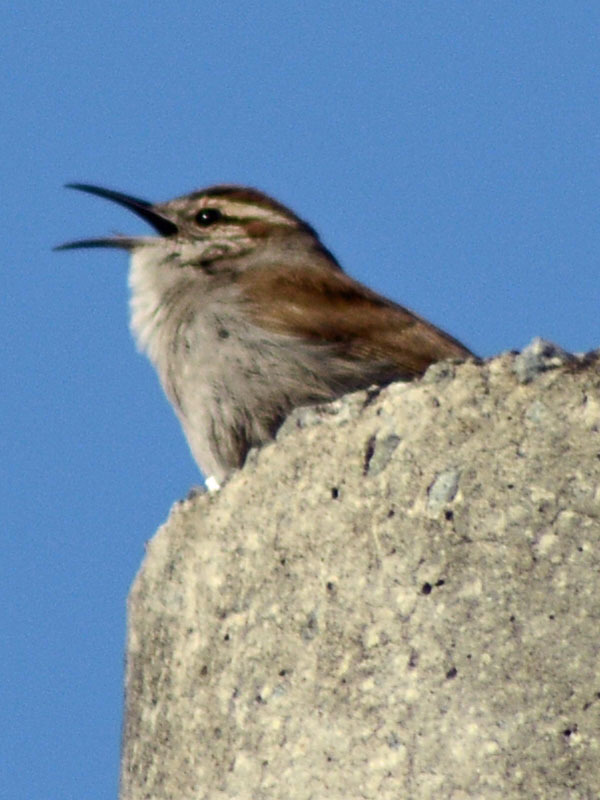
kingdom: Animalia
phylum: Chordata
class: Aves
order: Passeriformes
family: Troglodytidae
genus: Thryomanes
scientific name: Thryomanes bewickii
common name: Bewick's wren
